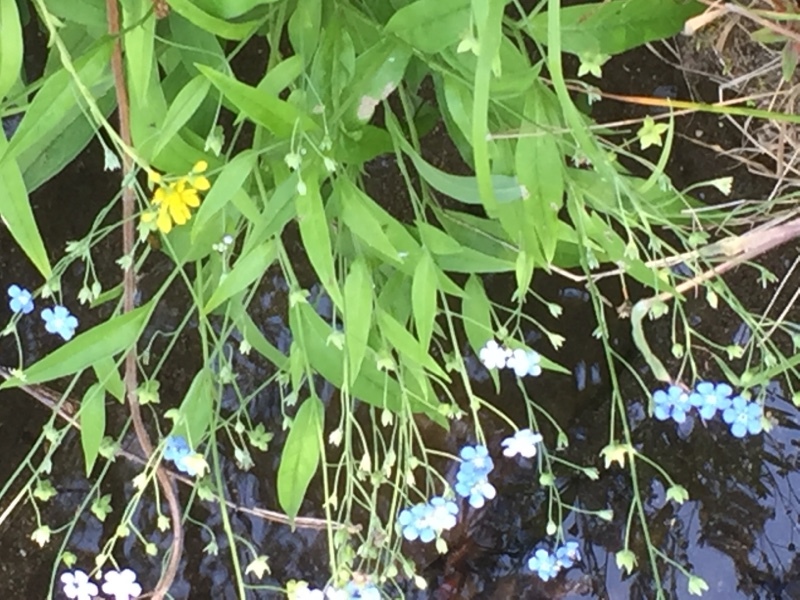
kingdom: Plantae
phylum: Tracheophyta
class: Magnoliopsida
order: Boraginales
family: Boraginaceae
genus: Omphalodes
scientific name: Omphalodes nitida
